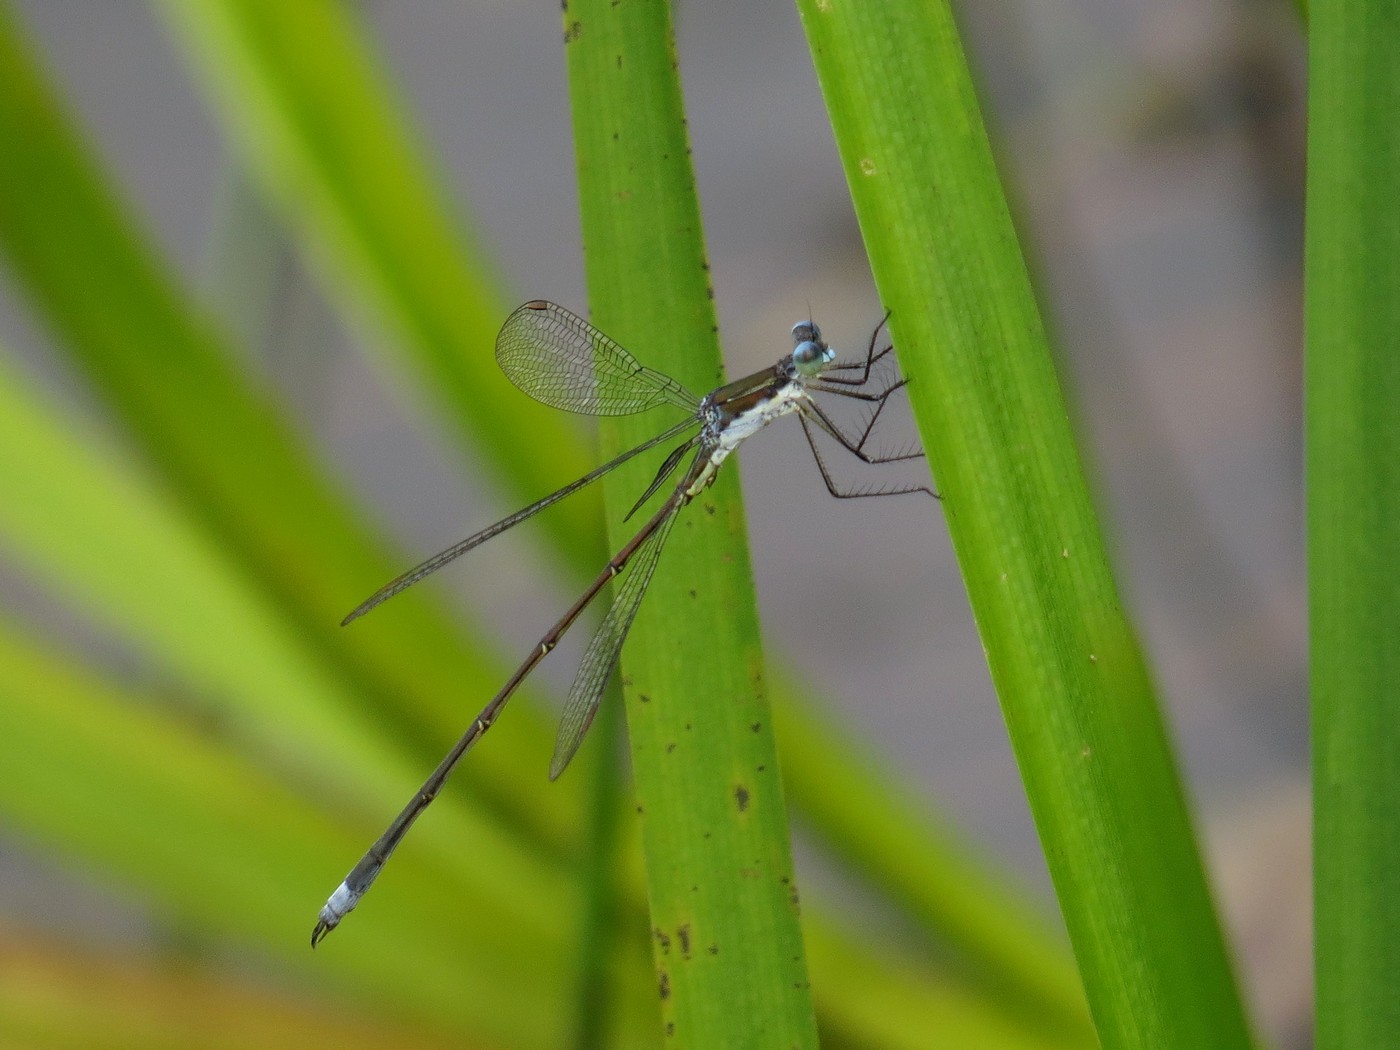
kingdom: Animalia
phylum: Arthropoda
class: Insecta
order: Odonata
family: Lestidae
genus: Lestes
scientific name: Lestes vigilax
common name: Swamp spreadwing
